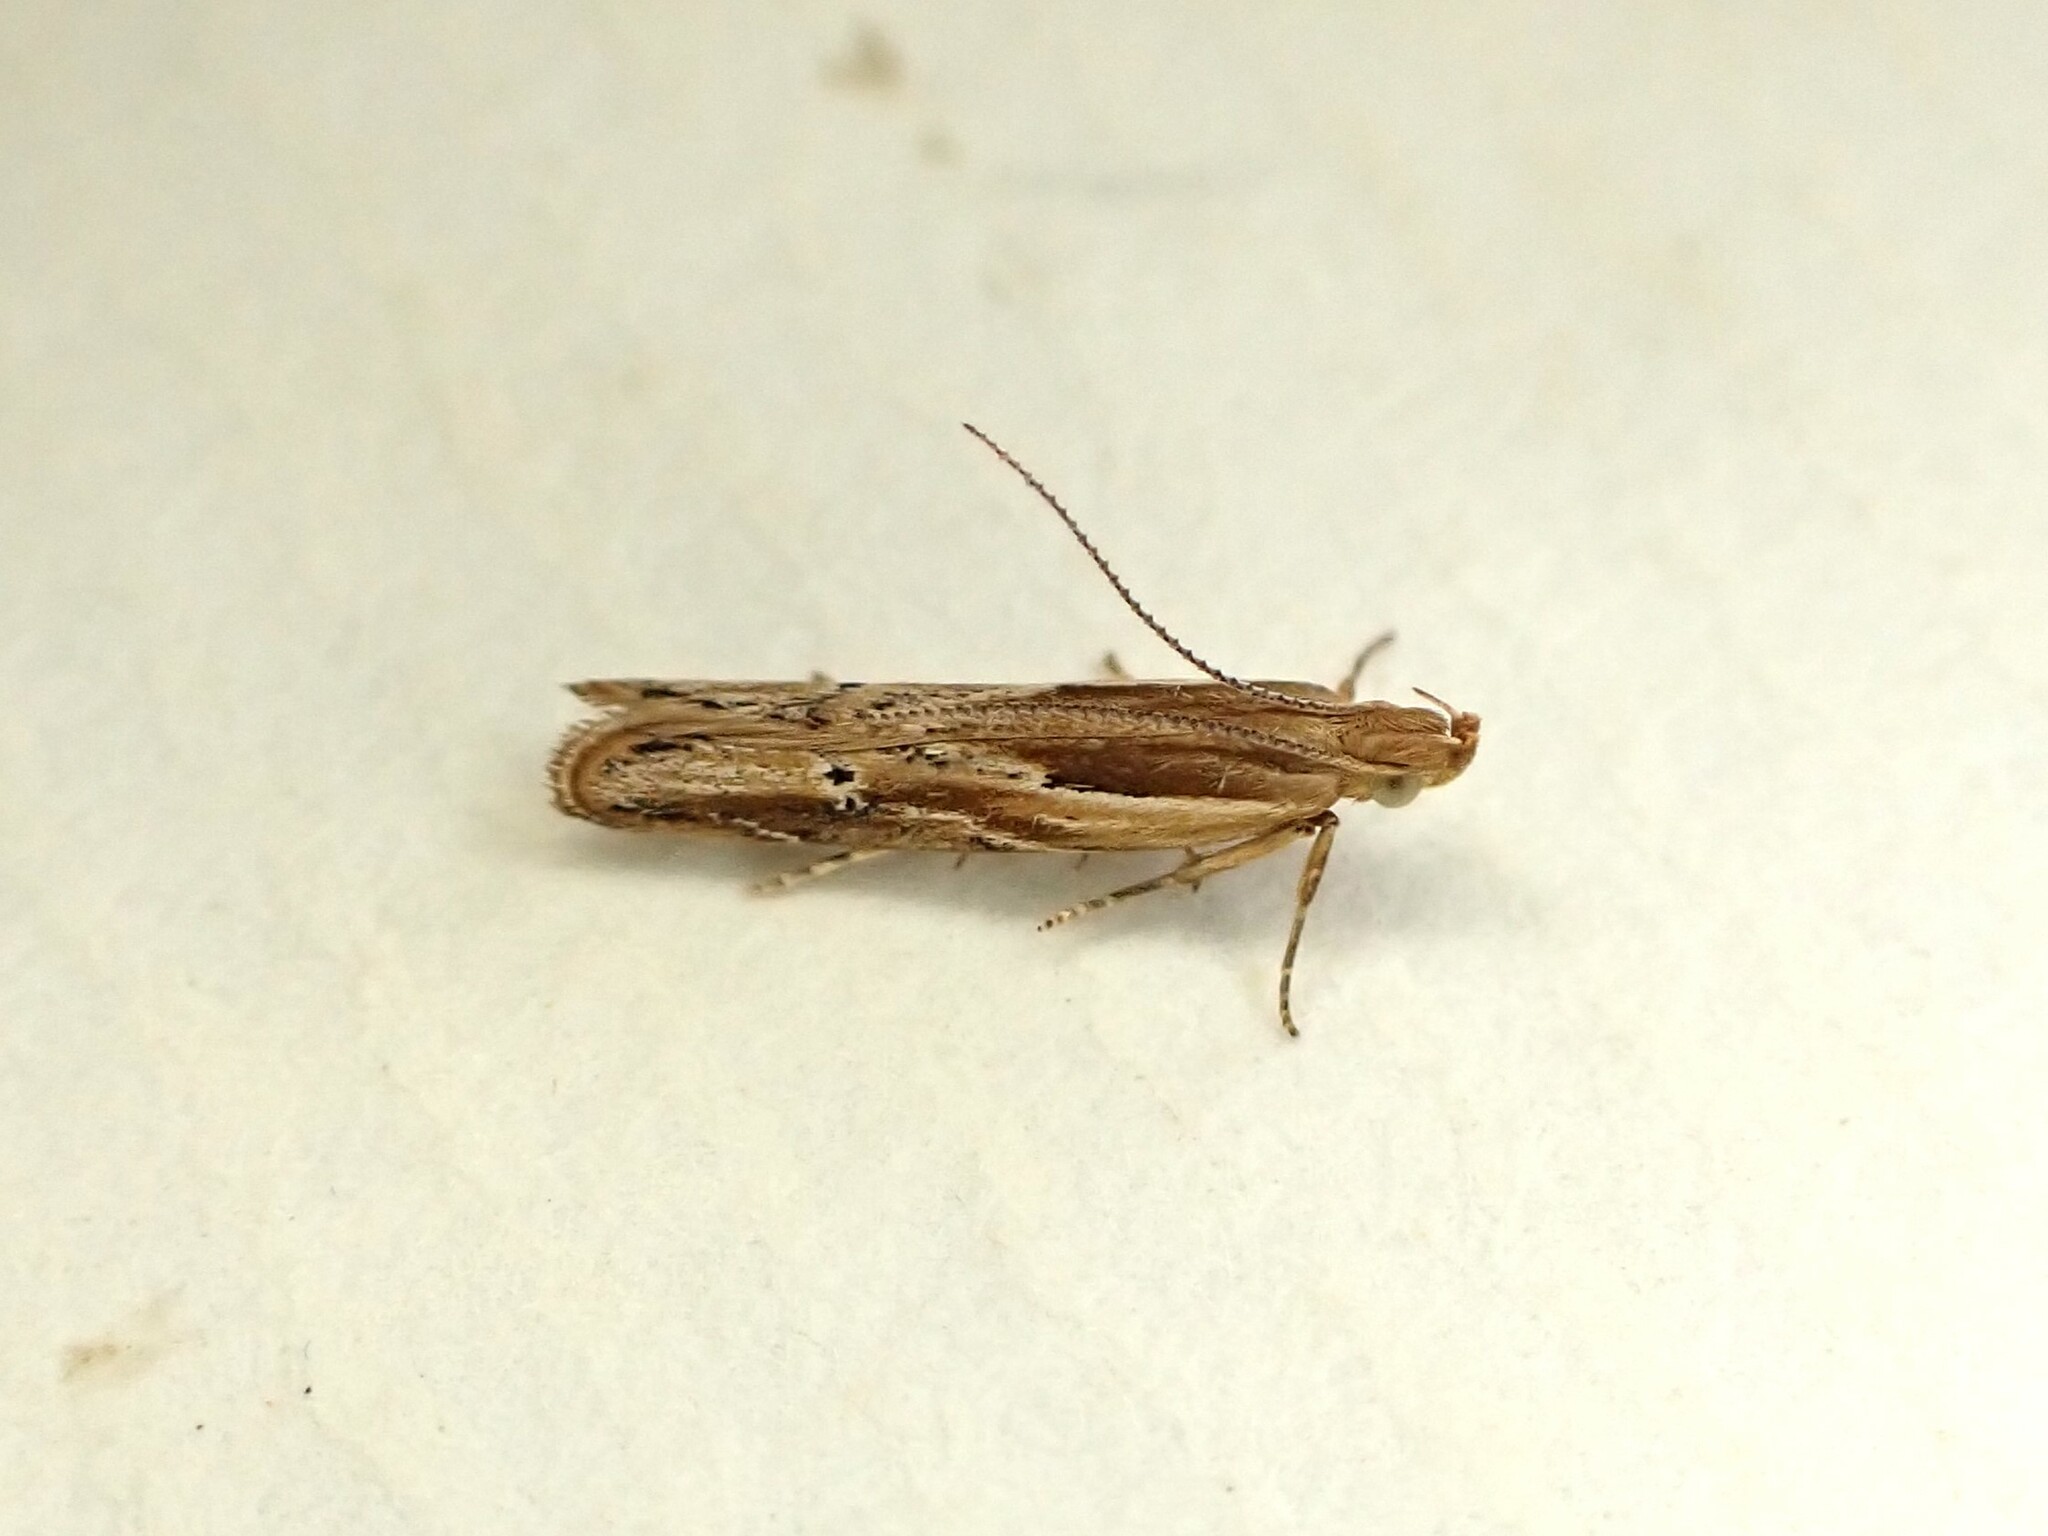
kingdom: Animalia
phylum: Arthropoda
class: Insecta
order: Lepidoptera
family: Depressariidae
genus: Eutorna
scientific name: Eutorna symmorpha
